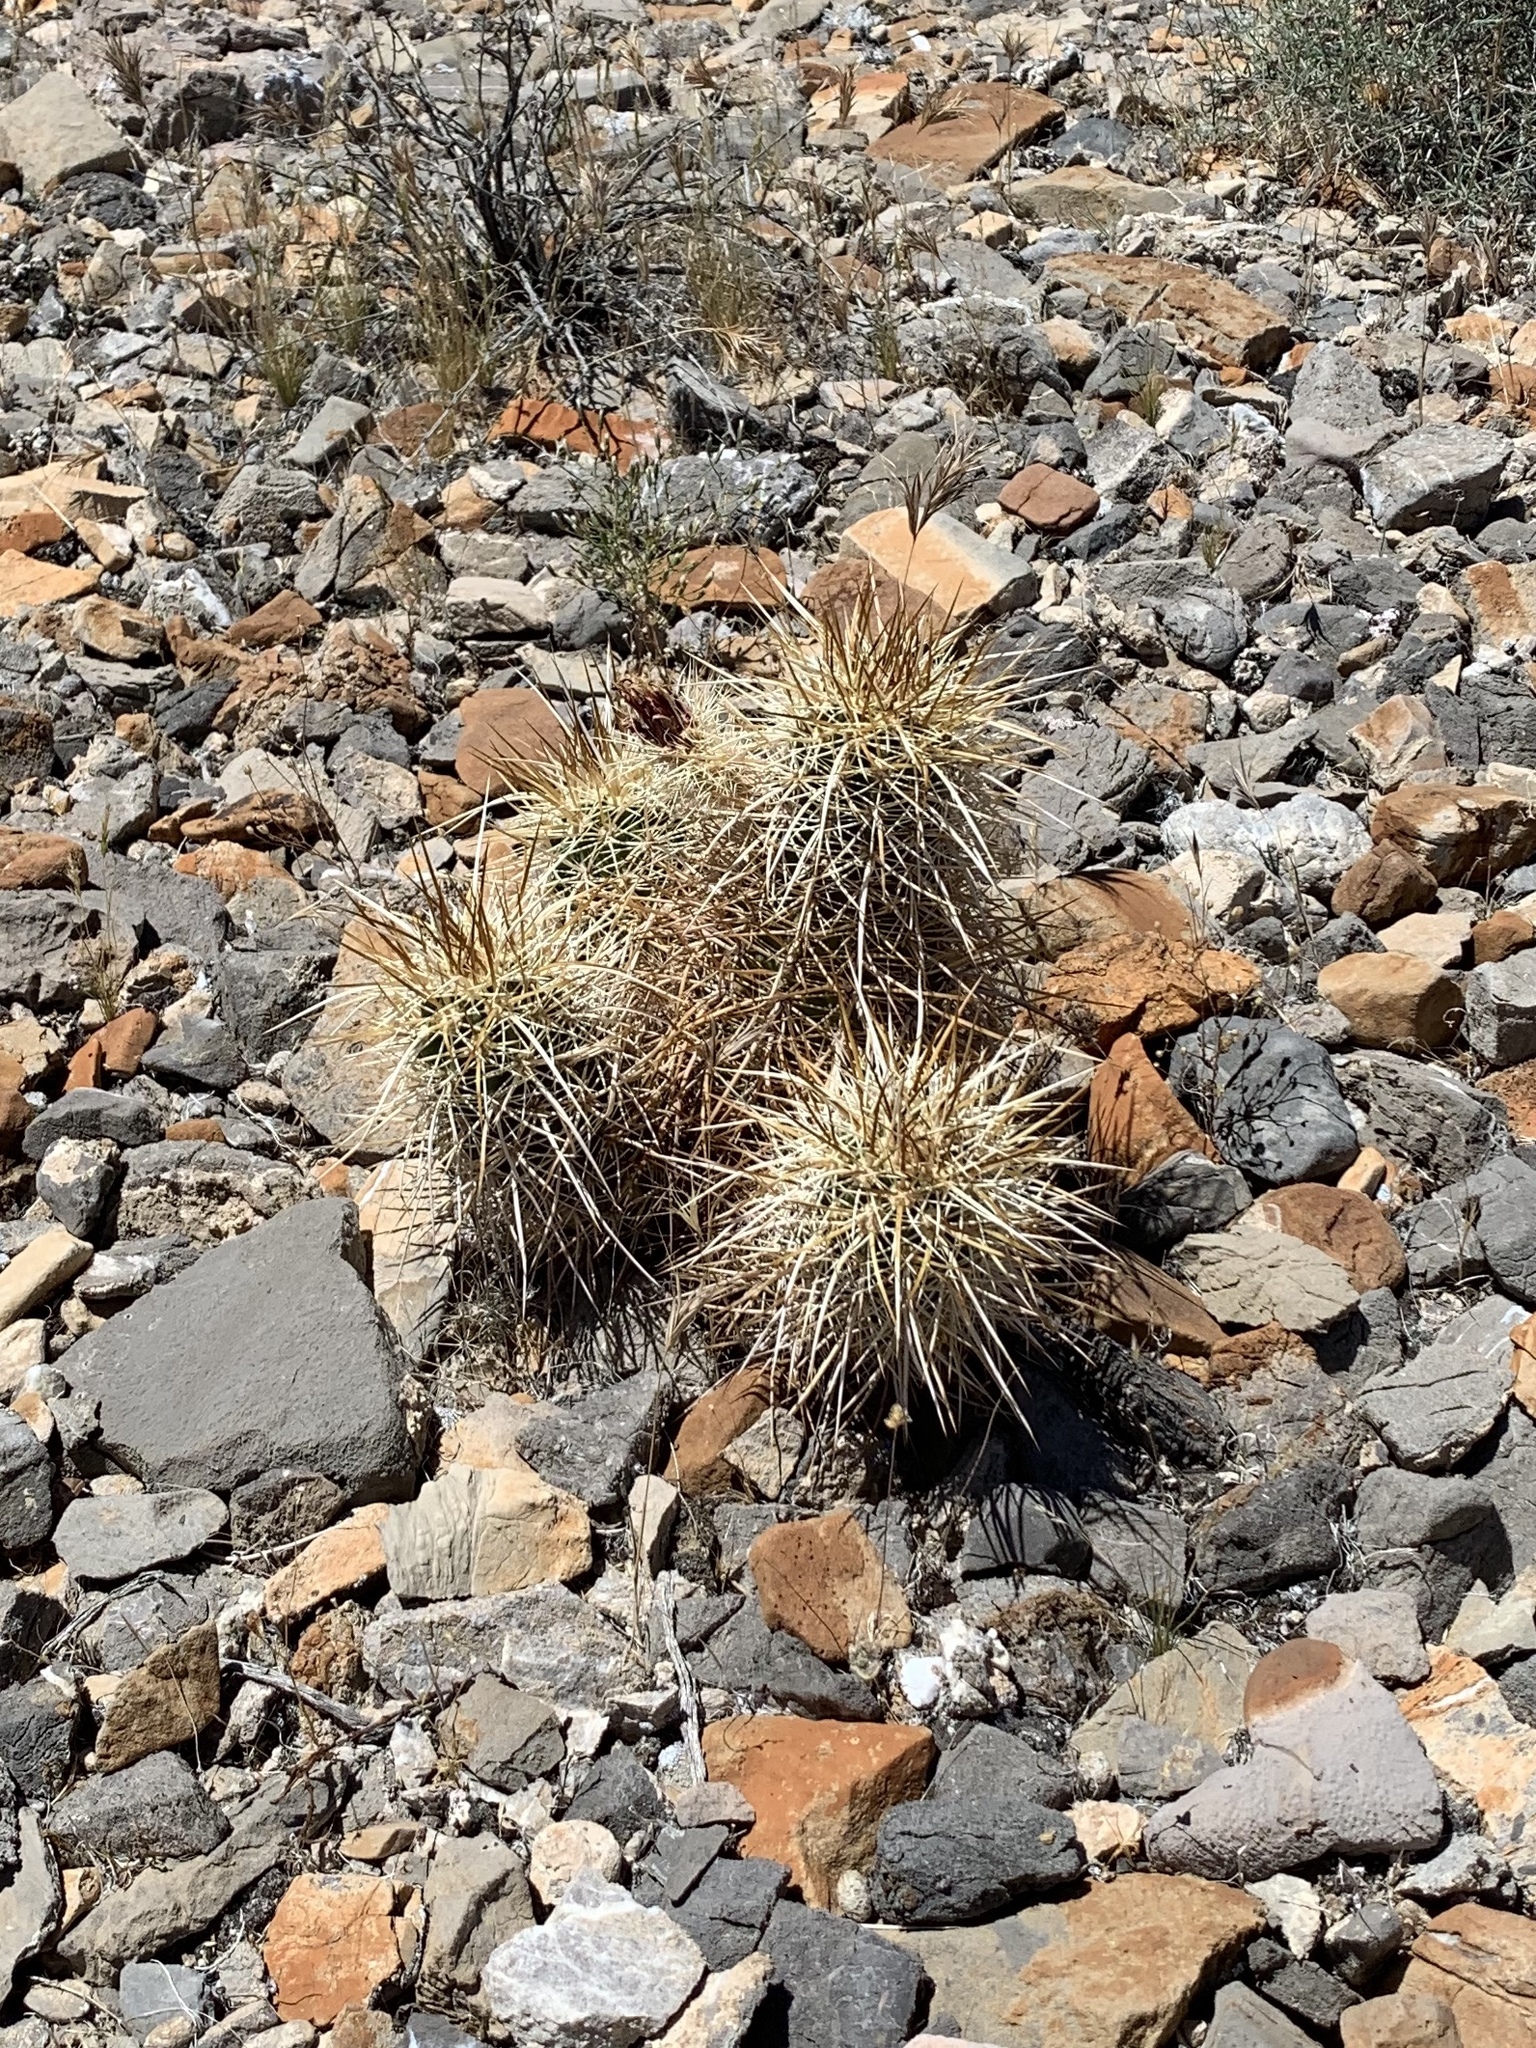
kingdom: Plantae
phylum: Tracheophyta
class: Magnoliopsida
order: Caryophyllales
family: Cactaceae
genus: Echinocereus
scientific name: Echinocereus engelmannii
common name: Engelmann's hedgehog cactus
